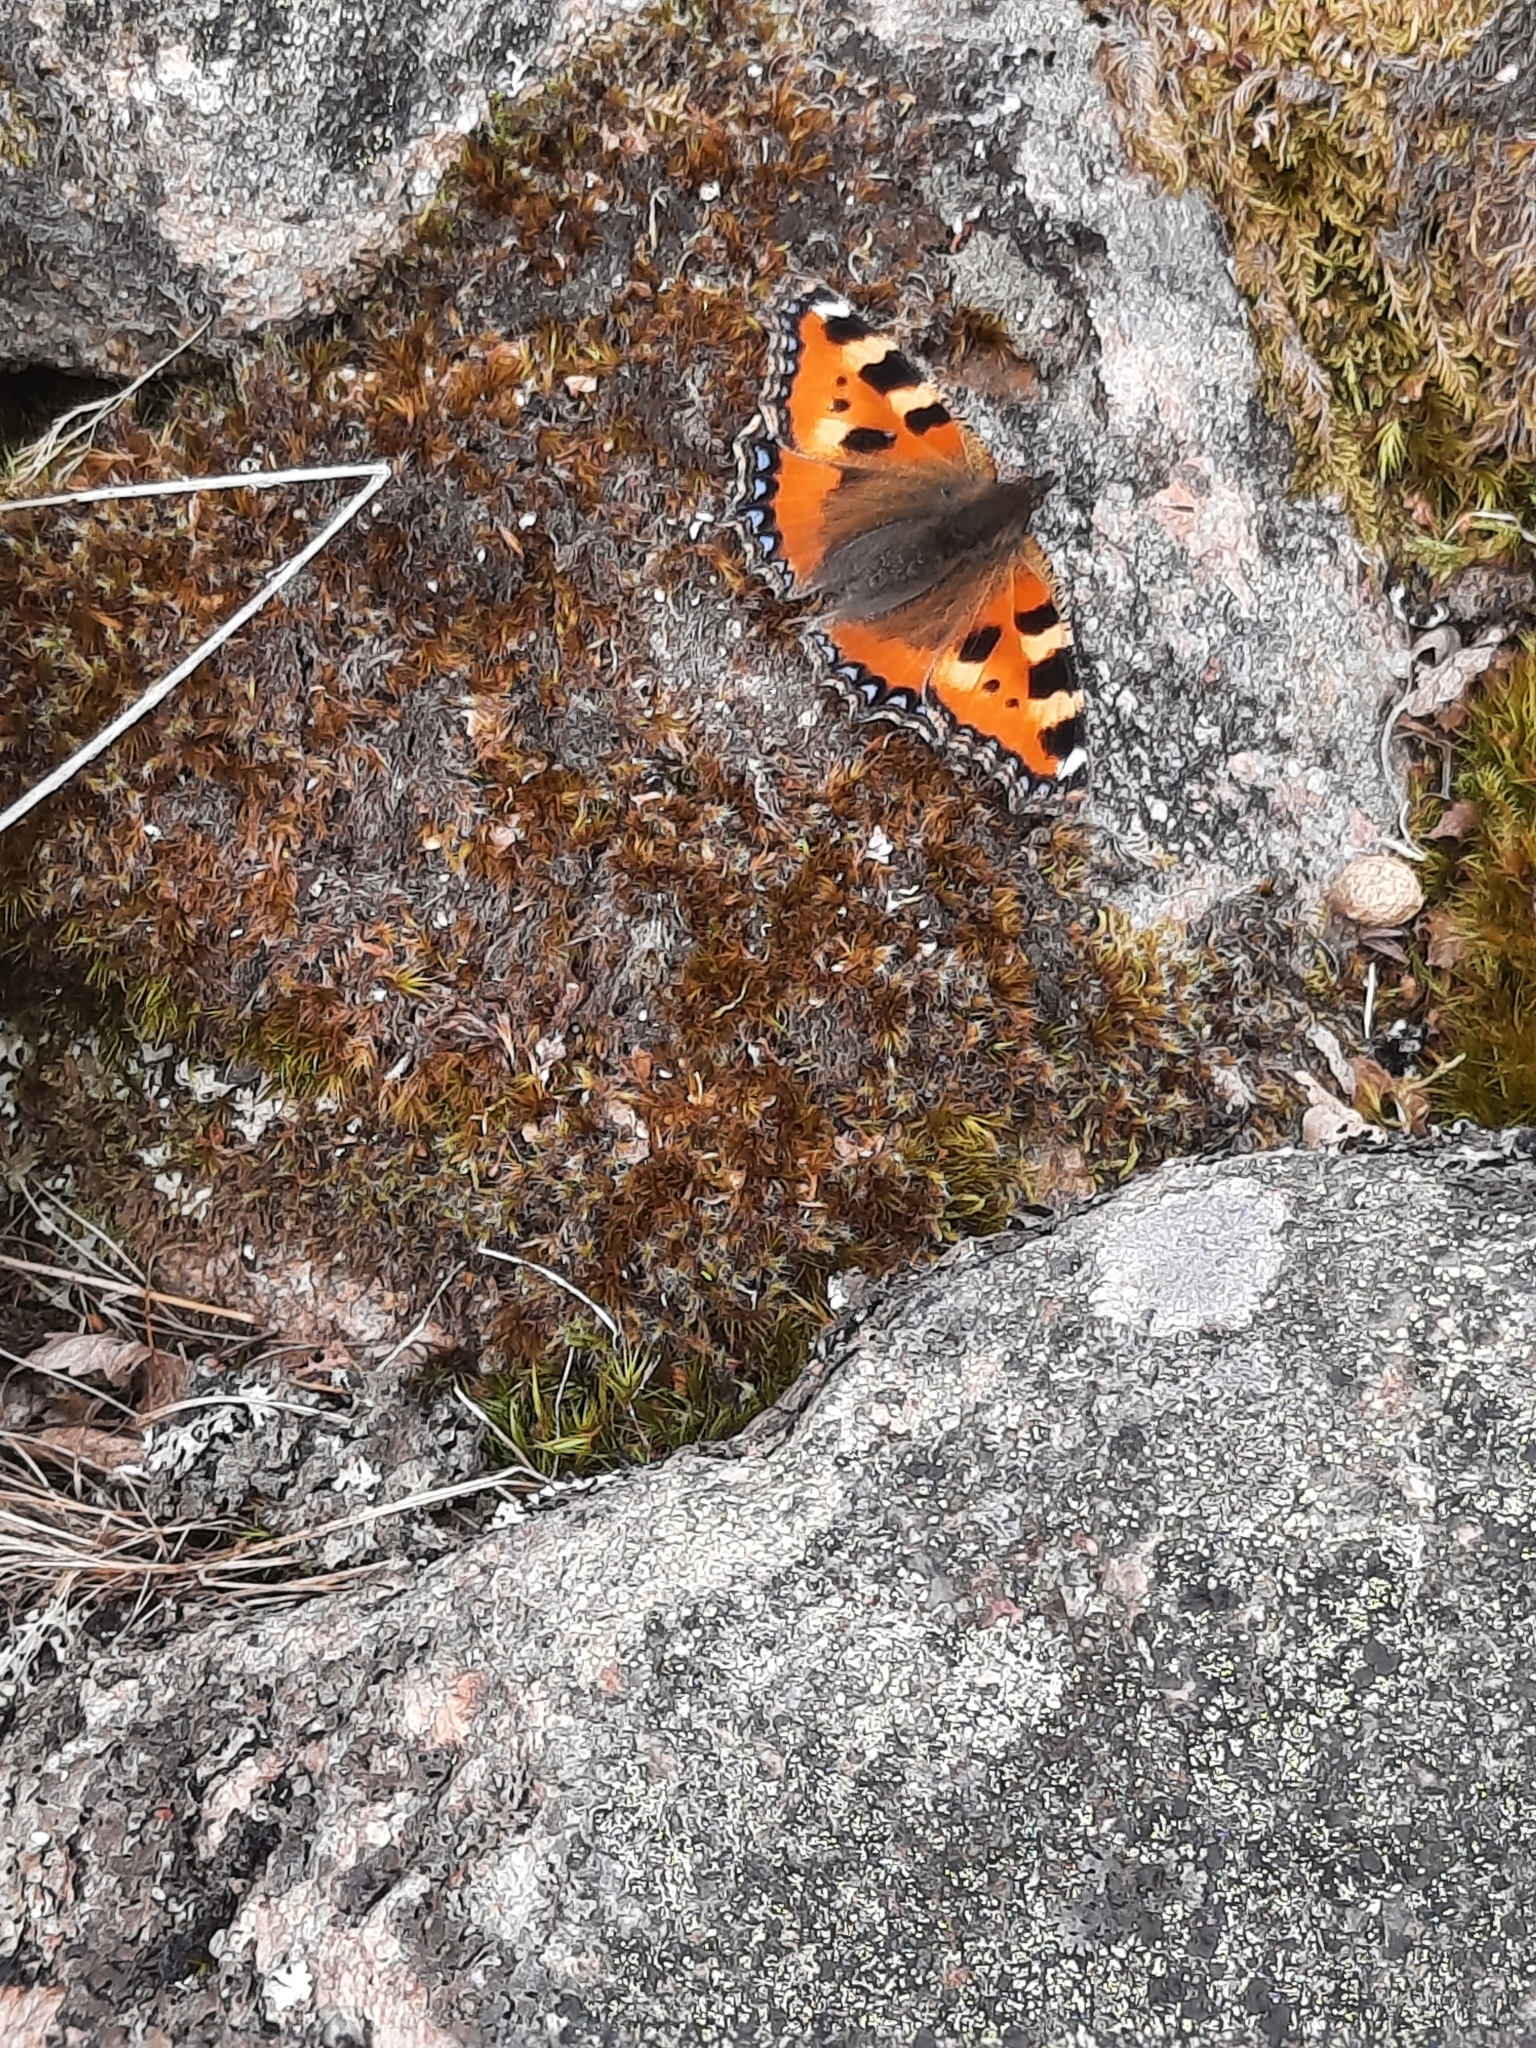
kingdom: Animalia
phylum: Arthropoda
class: Insecta
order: Lepidoptera
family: Nymphalidae
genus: Aglais
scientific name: Aglais urticae
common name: Small tortoiseshell
